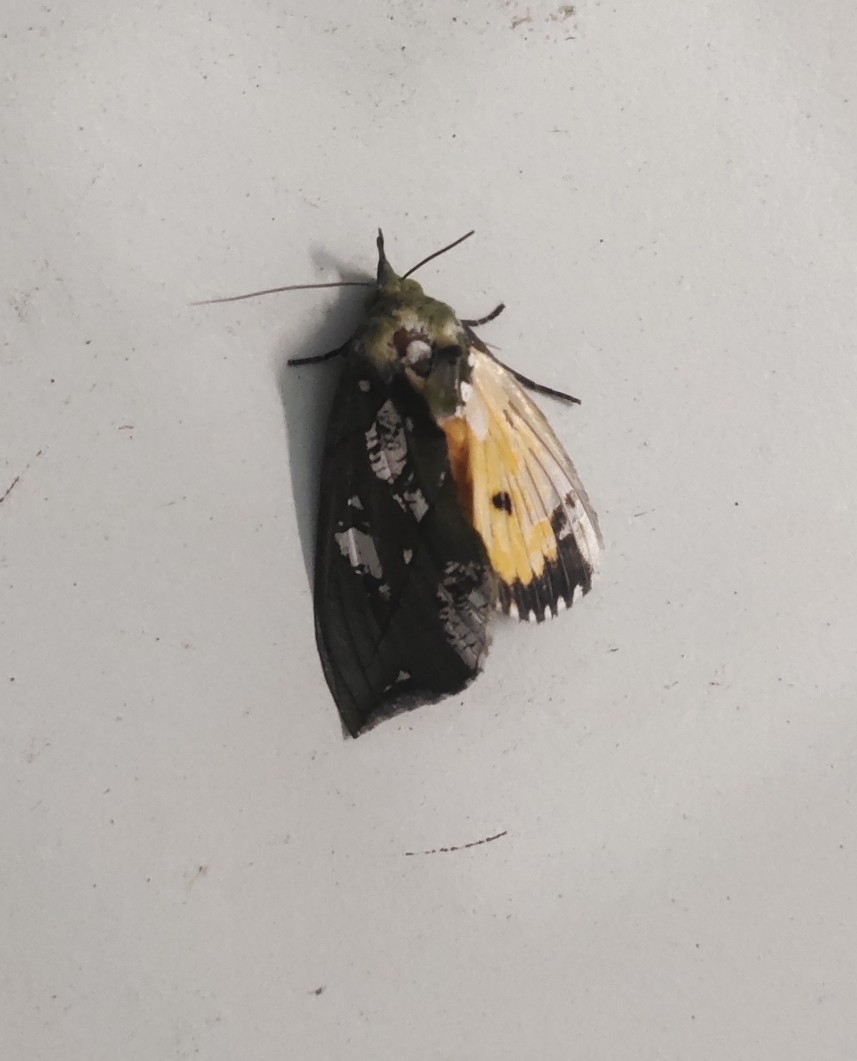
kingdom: Animalia
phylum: Arthropoda
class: Insecta
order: Lepidoptera
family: Erebidae
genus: Eudocima
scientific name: Eudocima hypermnestra
